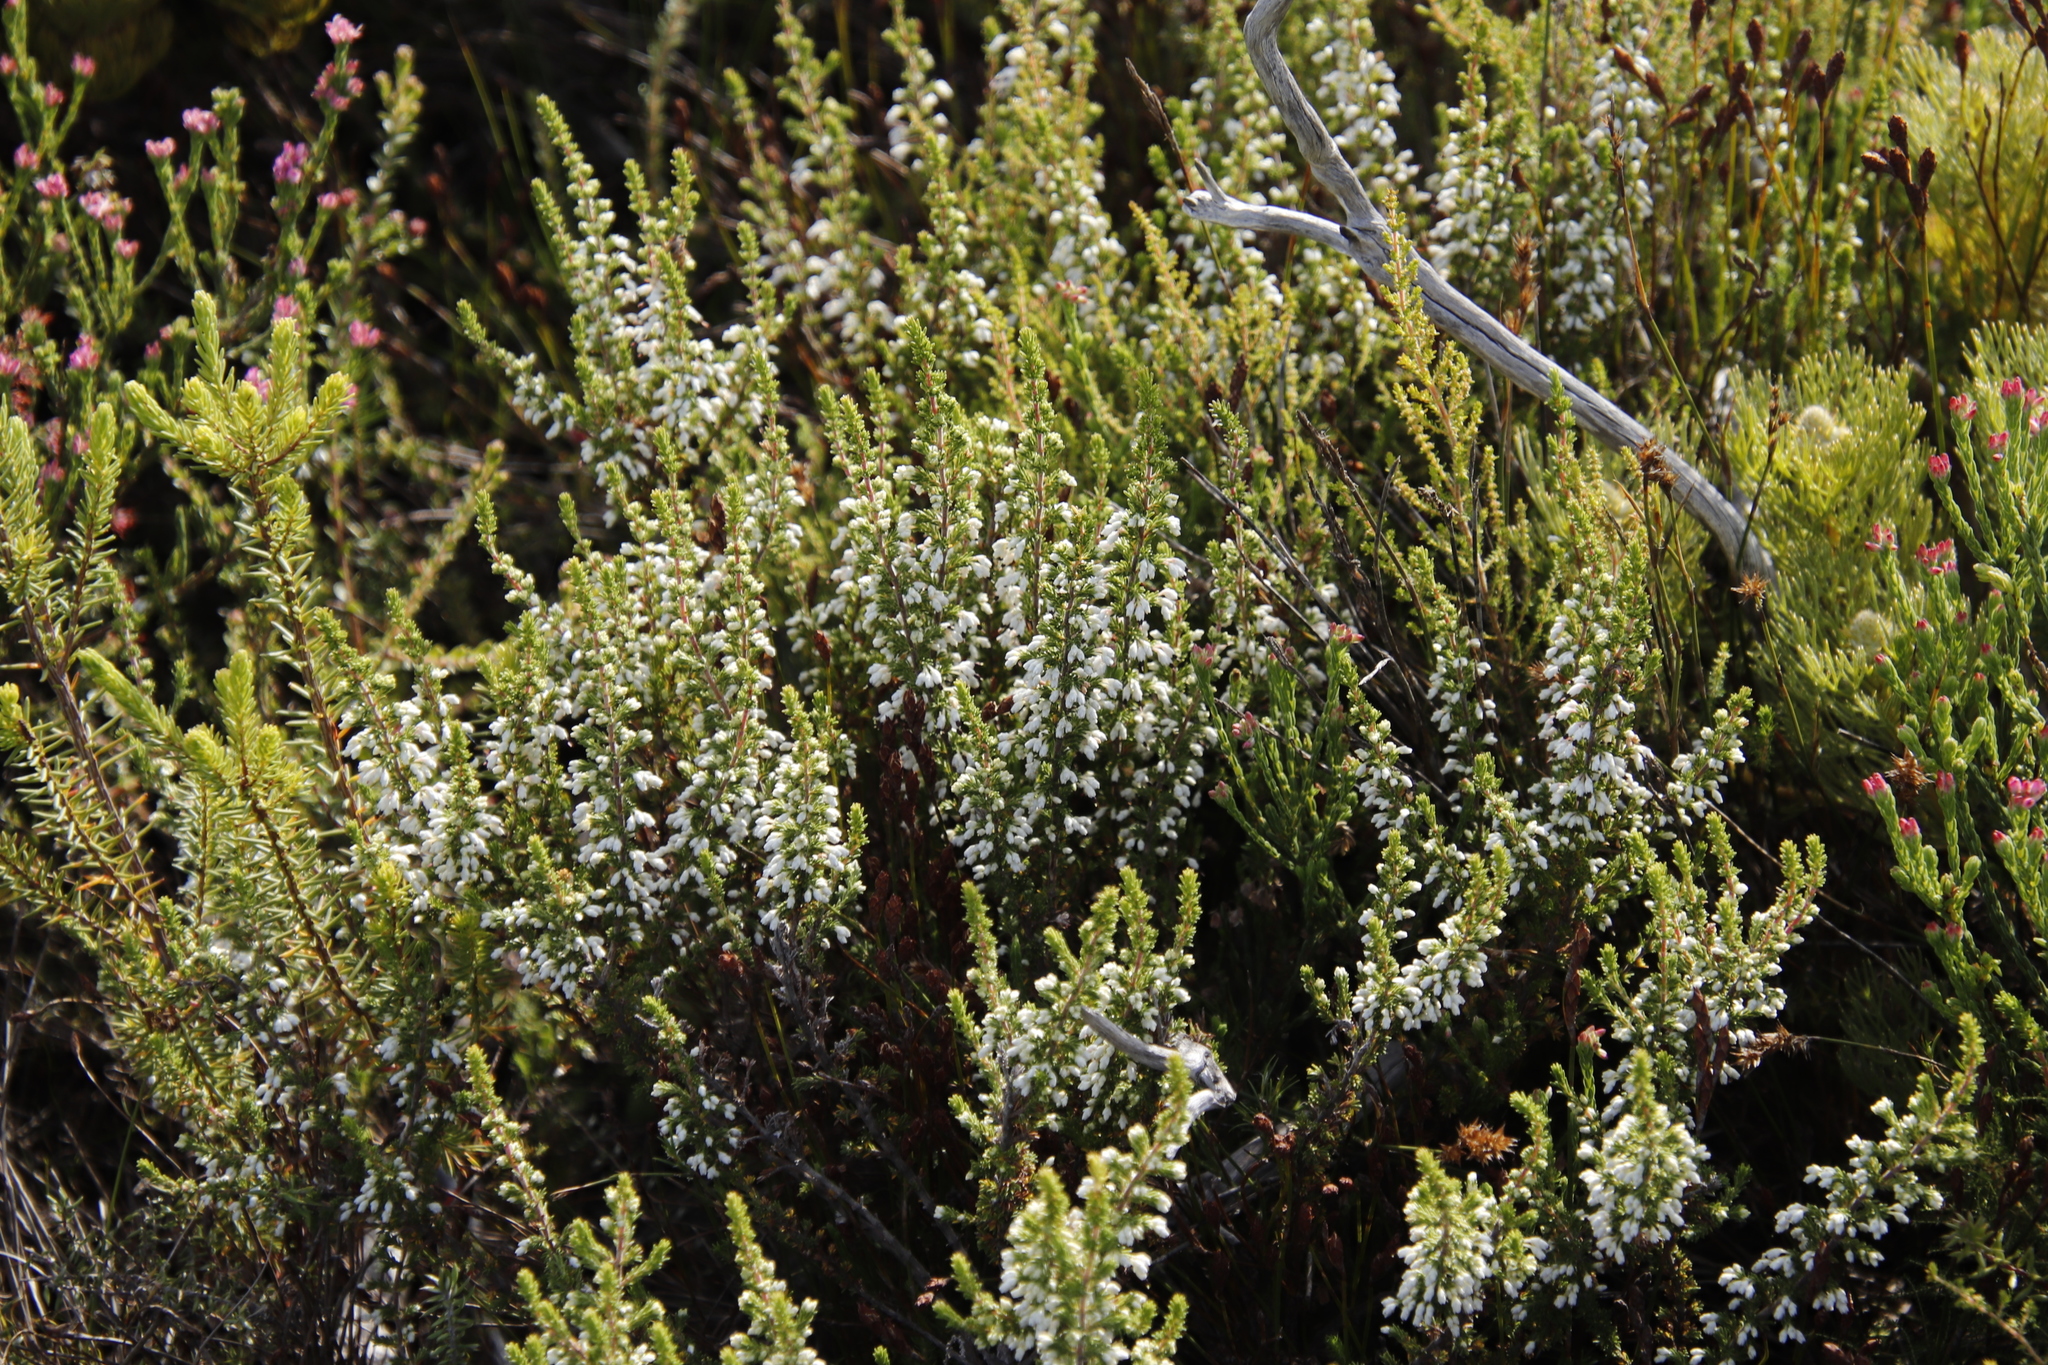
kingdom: Plantae
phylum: Tracheophyta
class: Magnoliopsida
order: Ericales
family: Ericaceae
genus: Erica
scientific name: Erica imbricata
